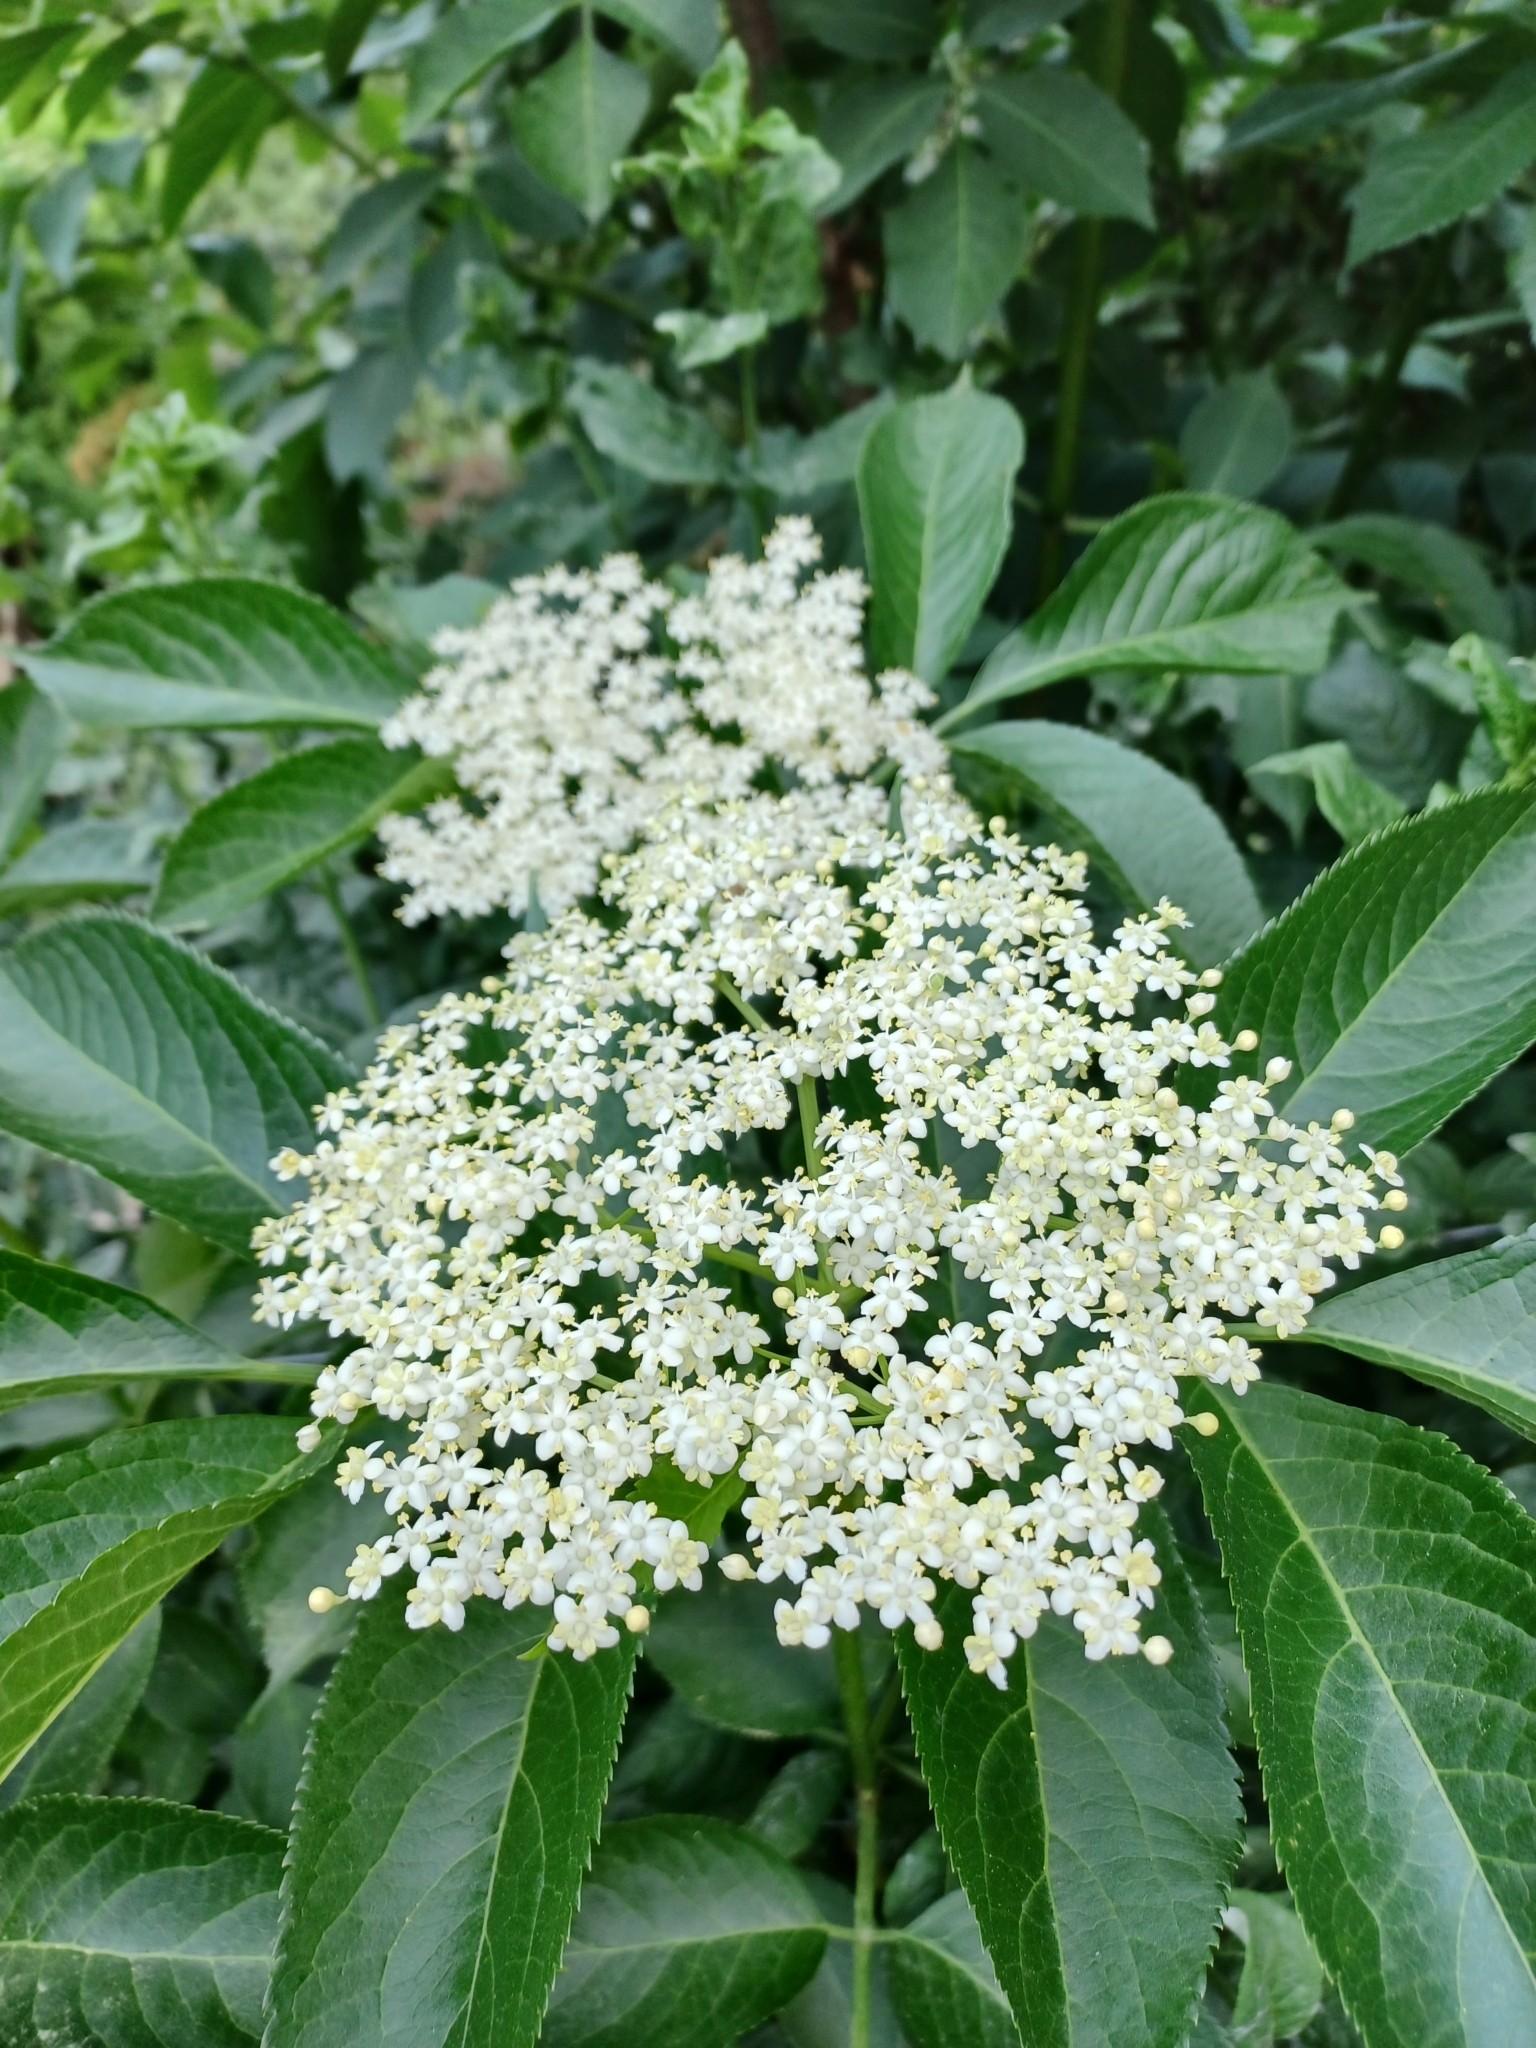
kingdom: Plantae
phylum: Tracheophyta
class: Magnoliopsida
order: Dipsacales
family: Viburnaceae
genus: Sambucus
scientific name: Sambucus nigra
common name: Elder
